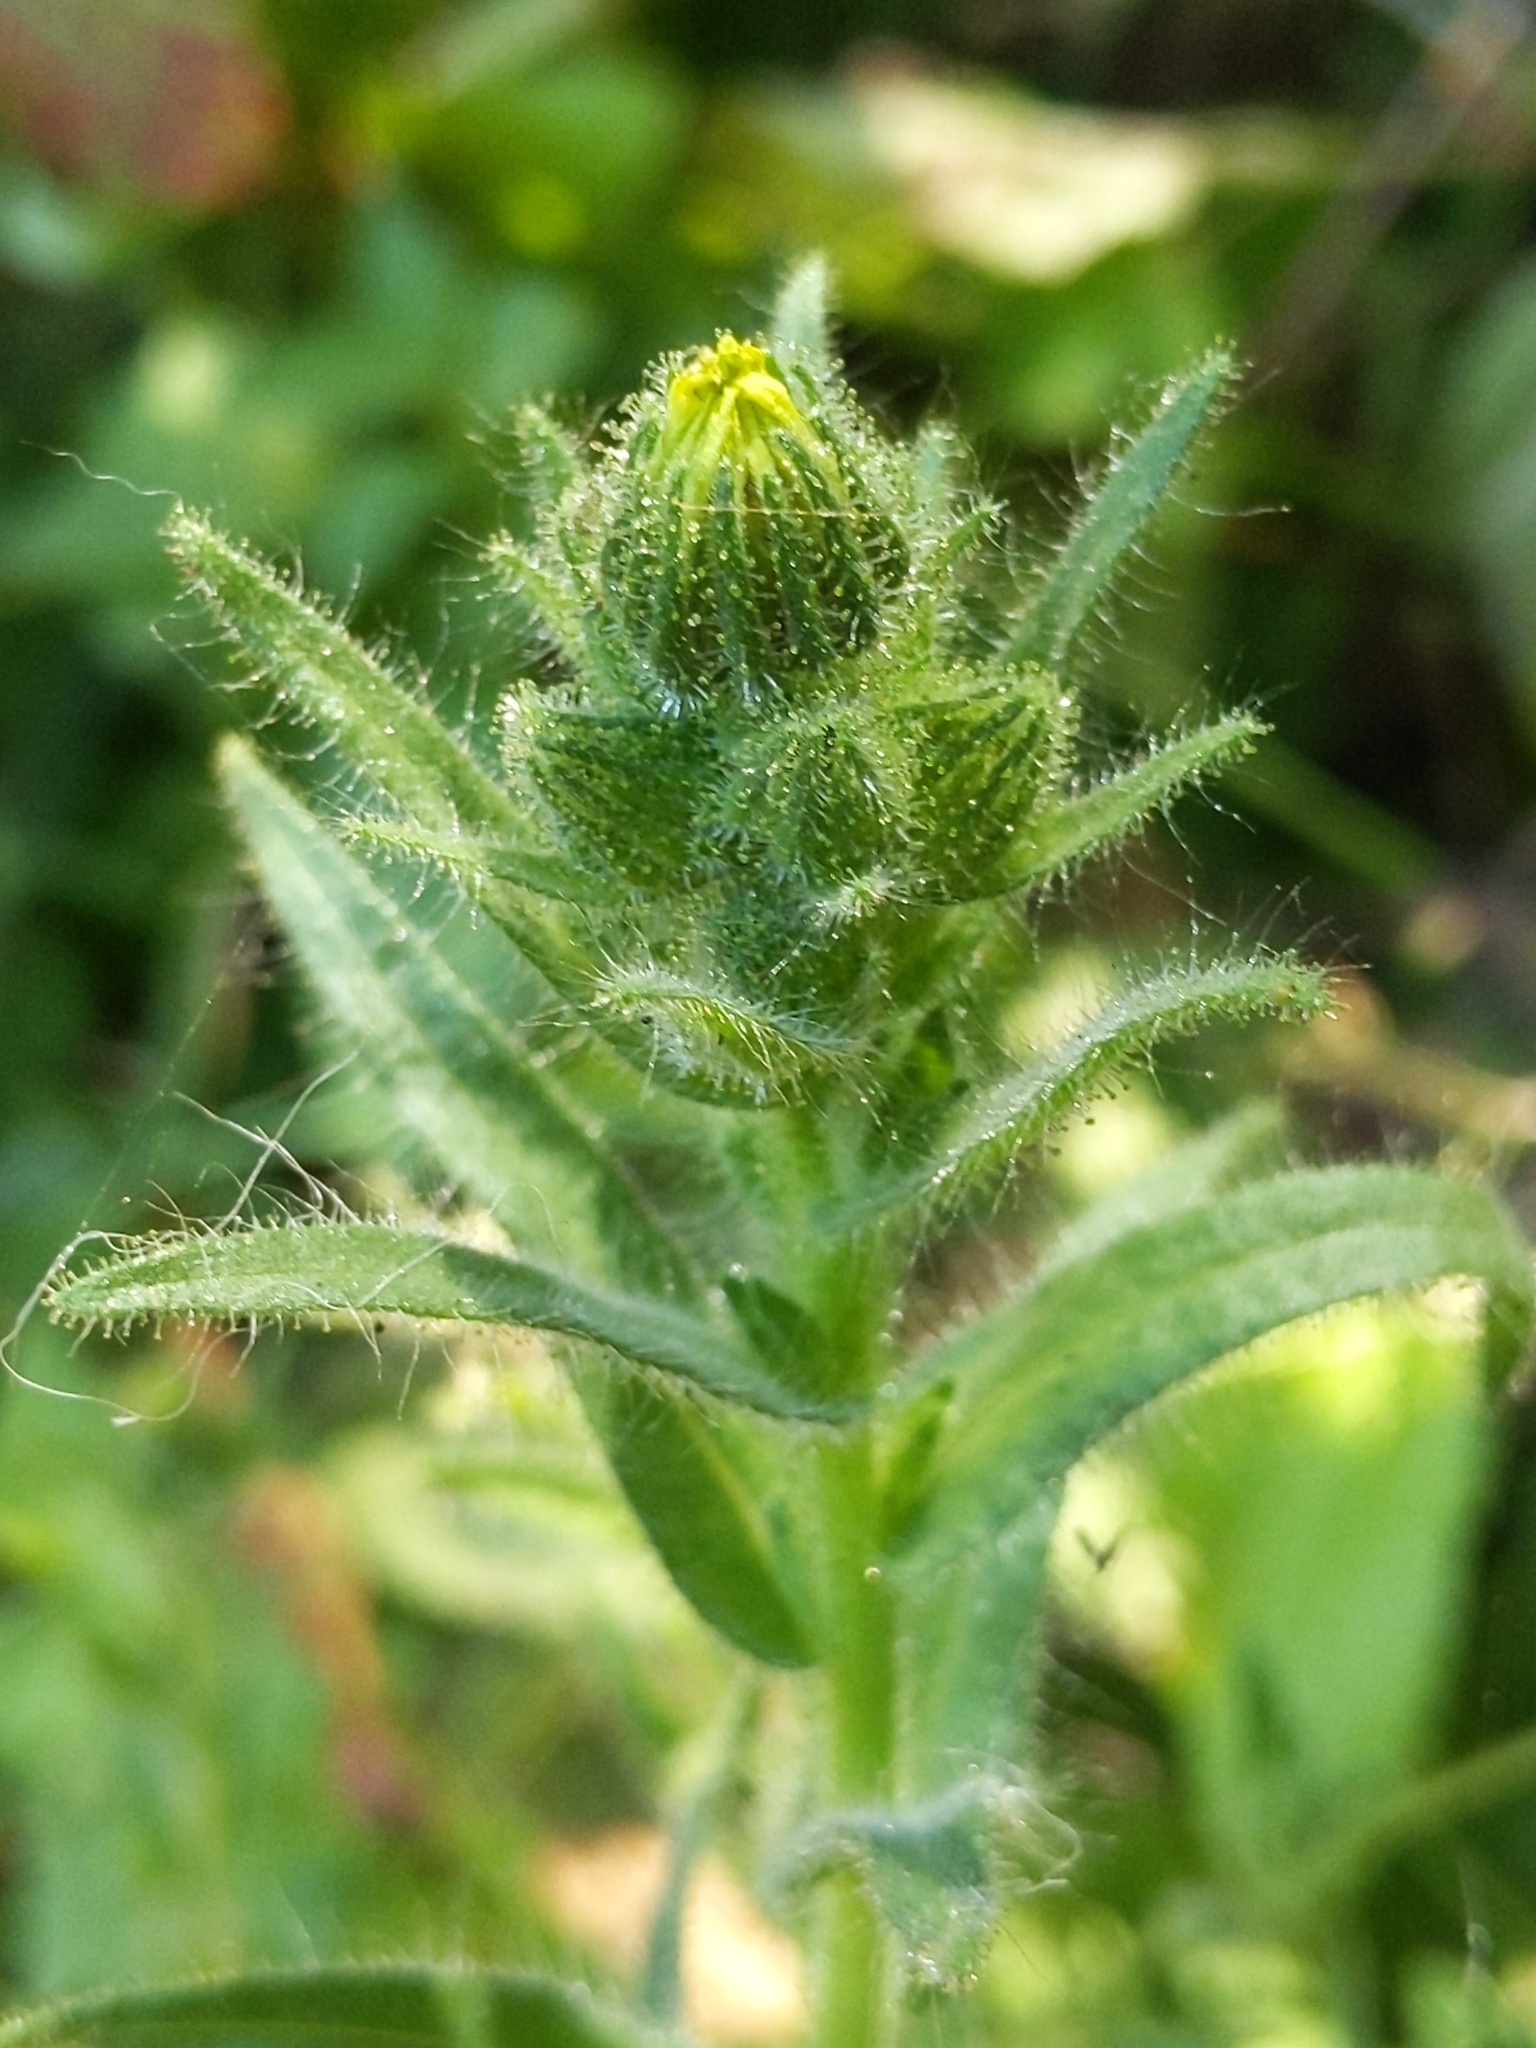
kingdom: Plantae
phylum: Tracheophyta
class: Magnoliopsida
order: Asterales
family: Asteraceae
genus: Madia
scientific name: Madia sativa
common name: Coast tarweed
